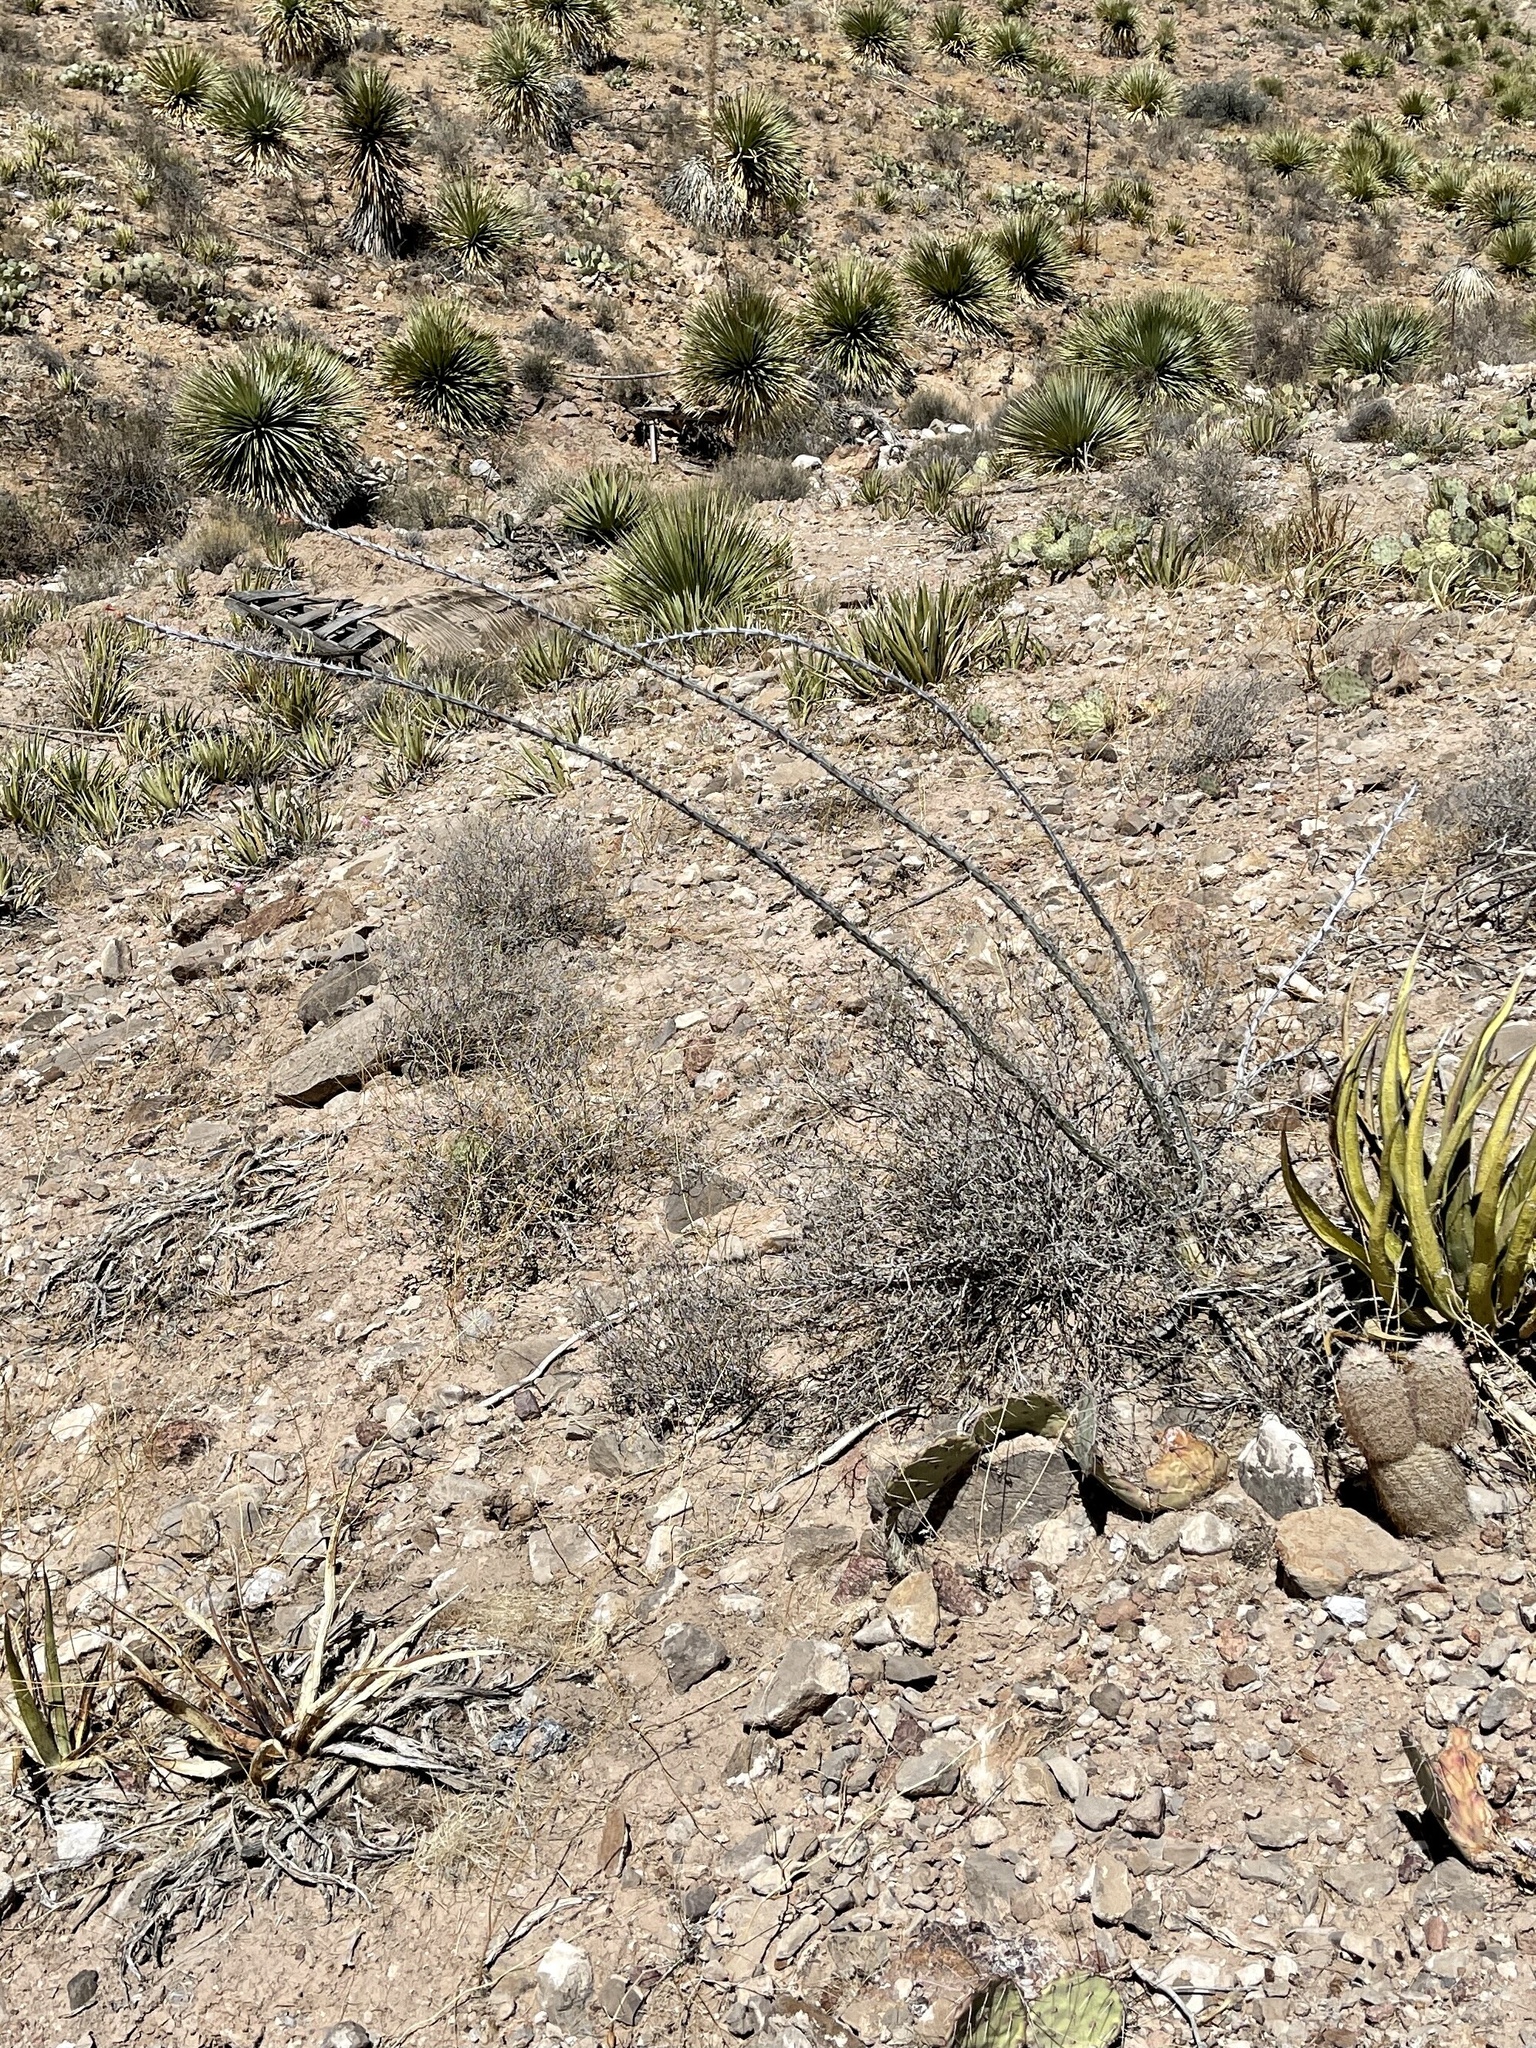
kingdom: Plantae
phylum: Tracheophyta
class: Magnoliopsida
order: Ericales
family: Fouquieriaceae
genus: Fouquieria
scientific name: Fouquieria splendens
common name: Vine-cactus
